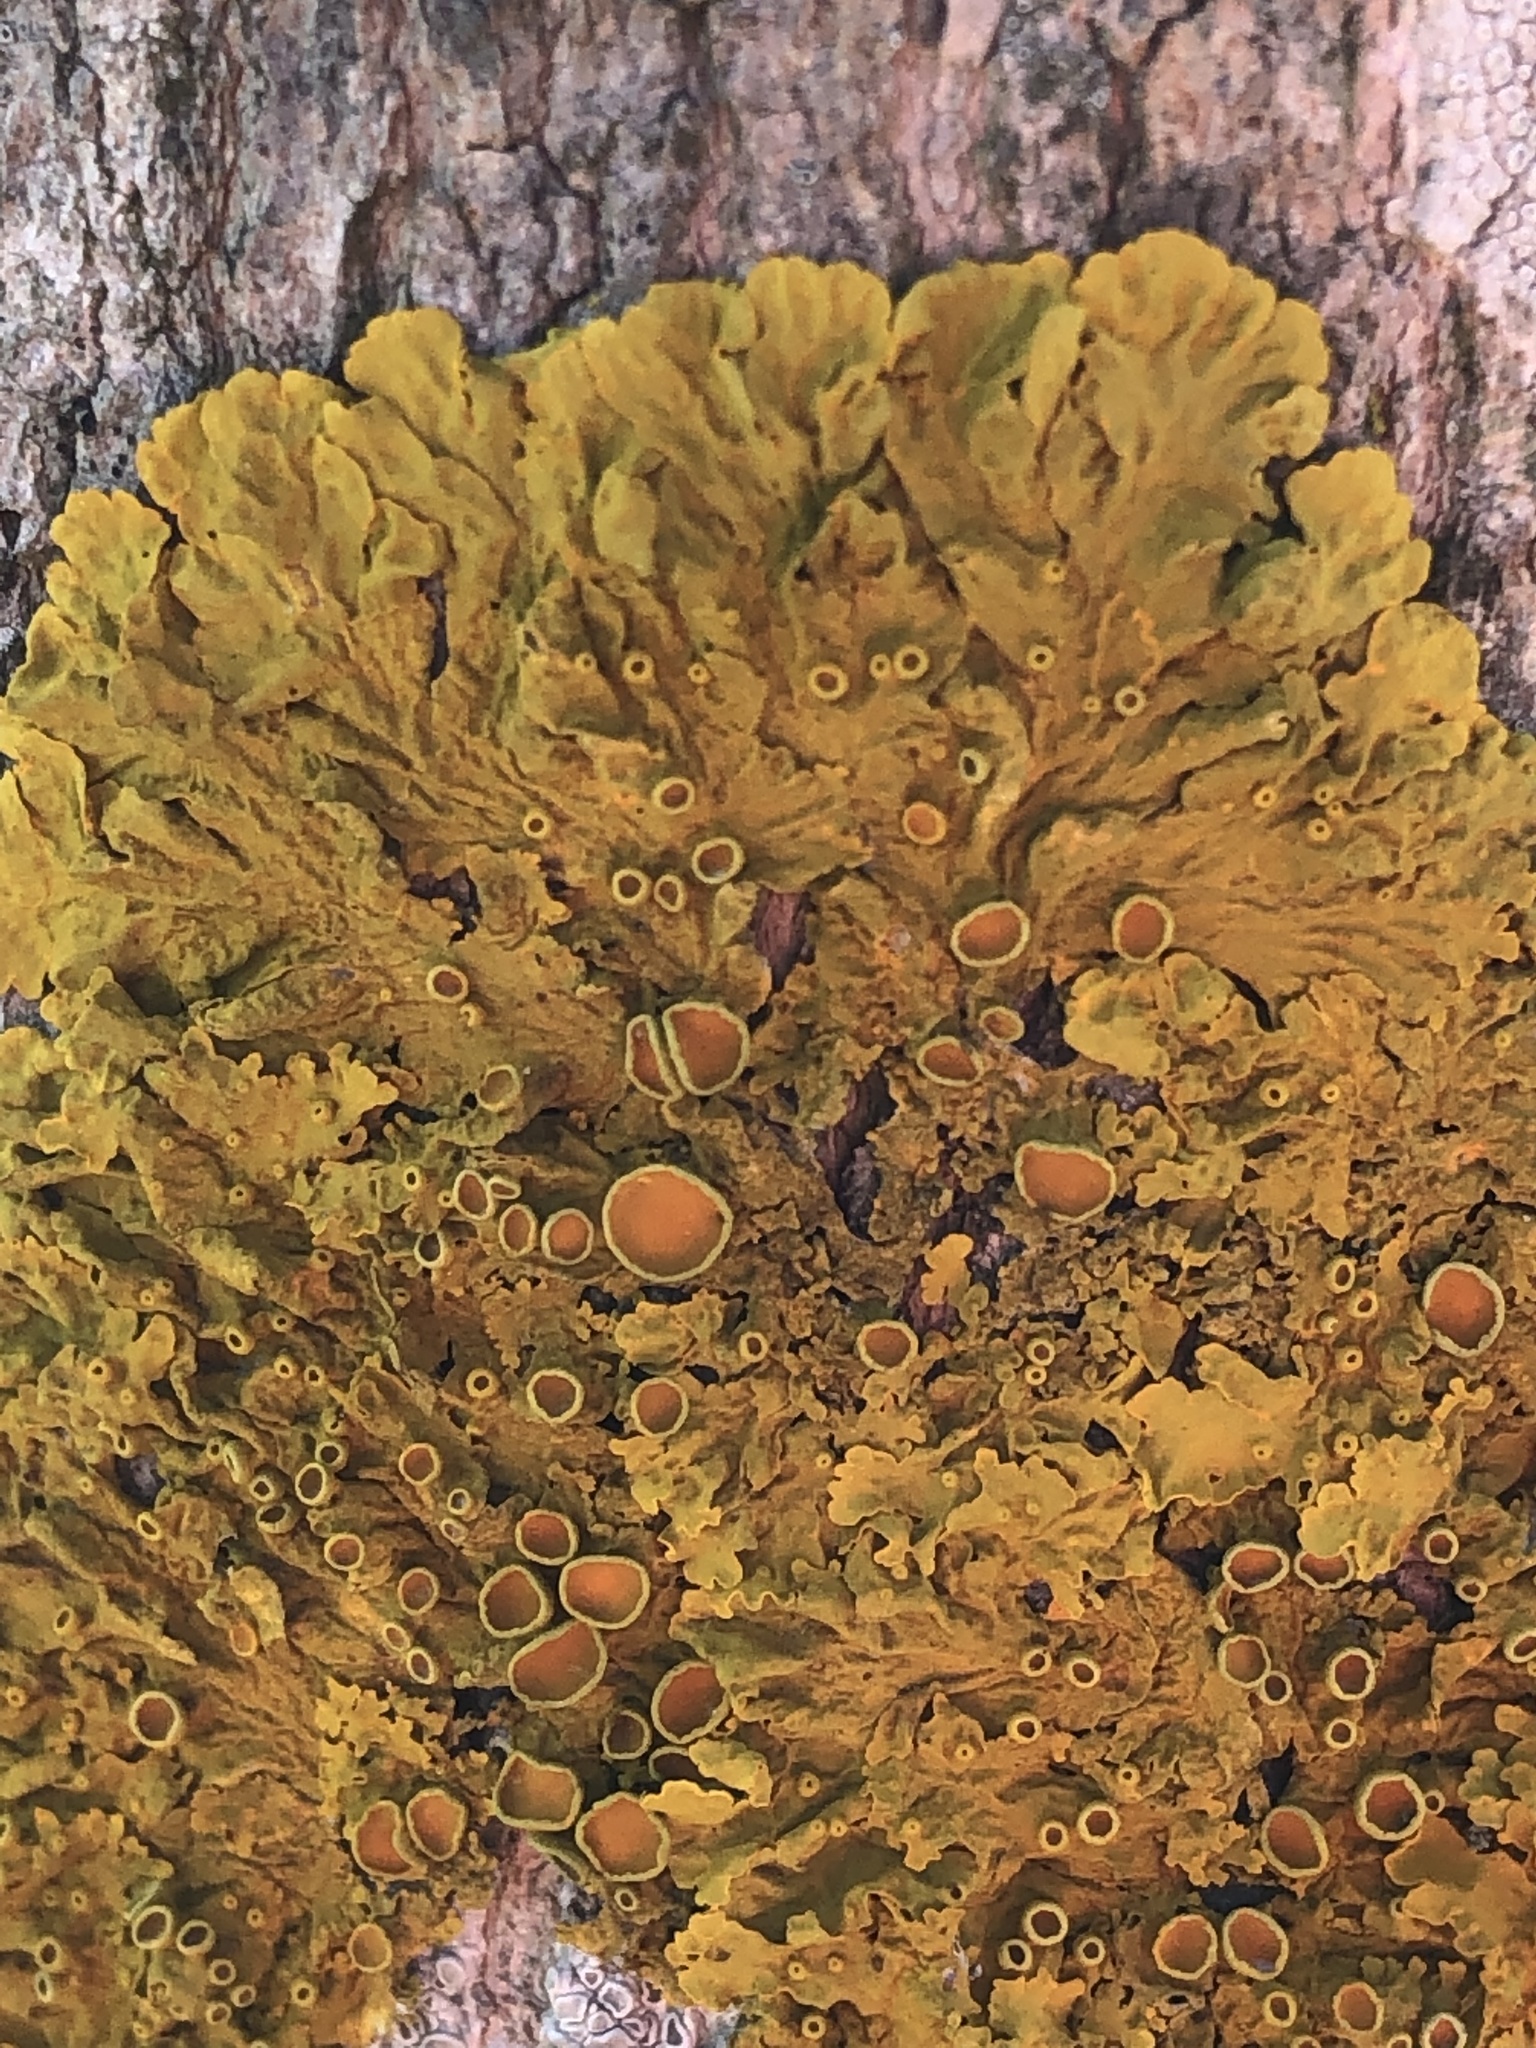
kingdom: Fungi
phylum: Ascomycota
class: Lecanoromycetes
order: Teloschistales
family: Teloschistaceae
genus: Xanthoria
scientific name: Xanthoria parietina
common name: Common orange lichen
